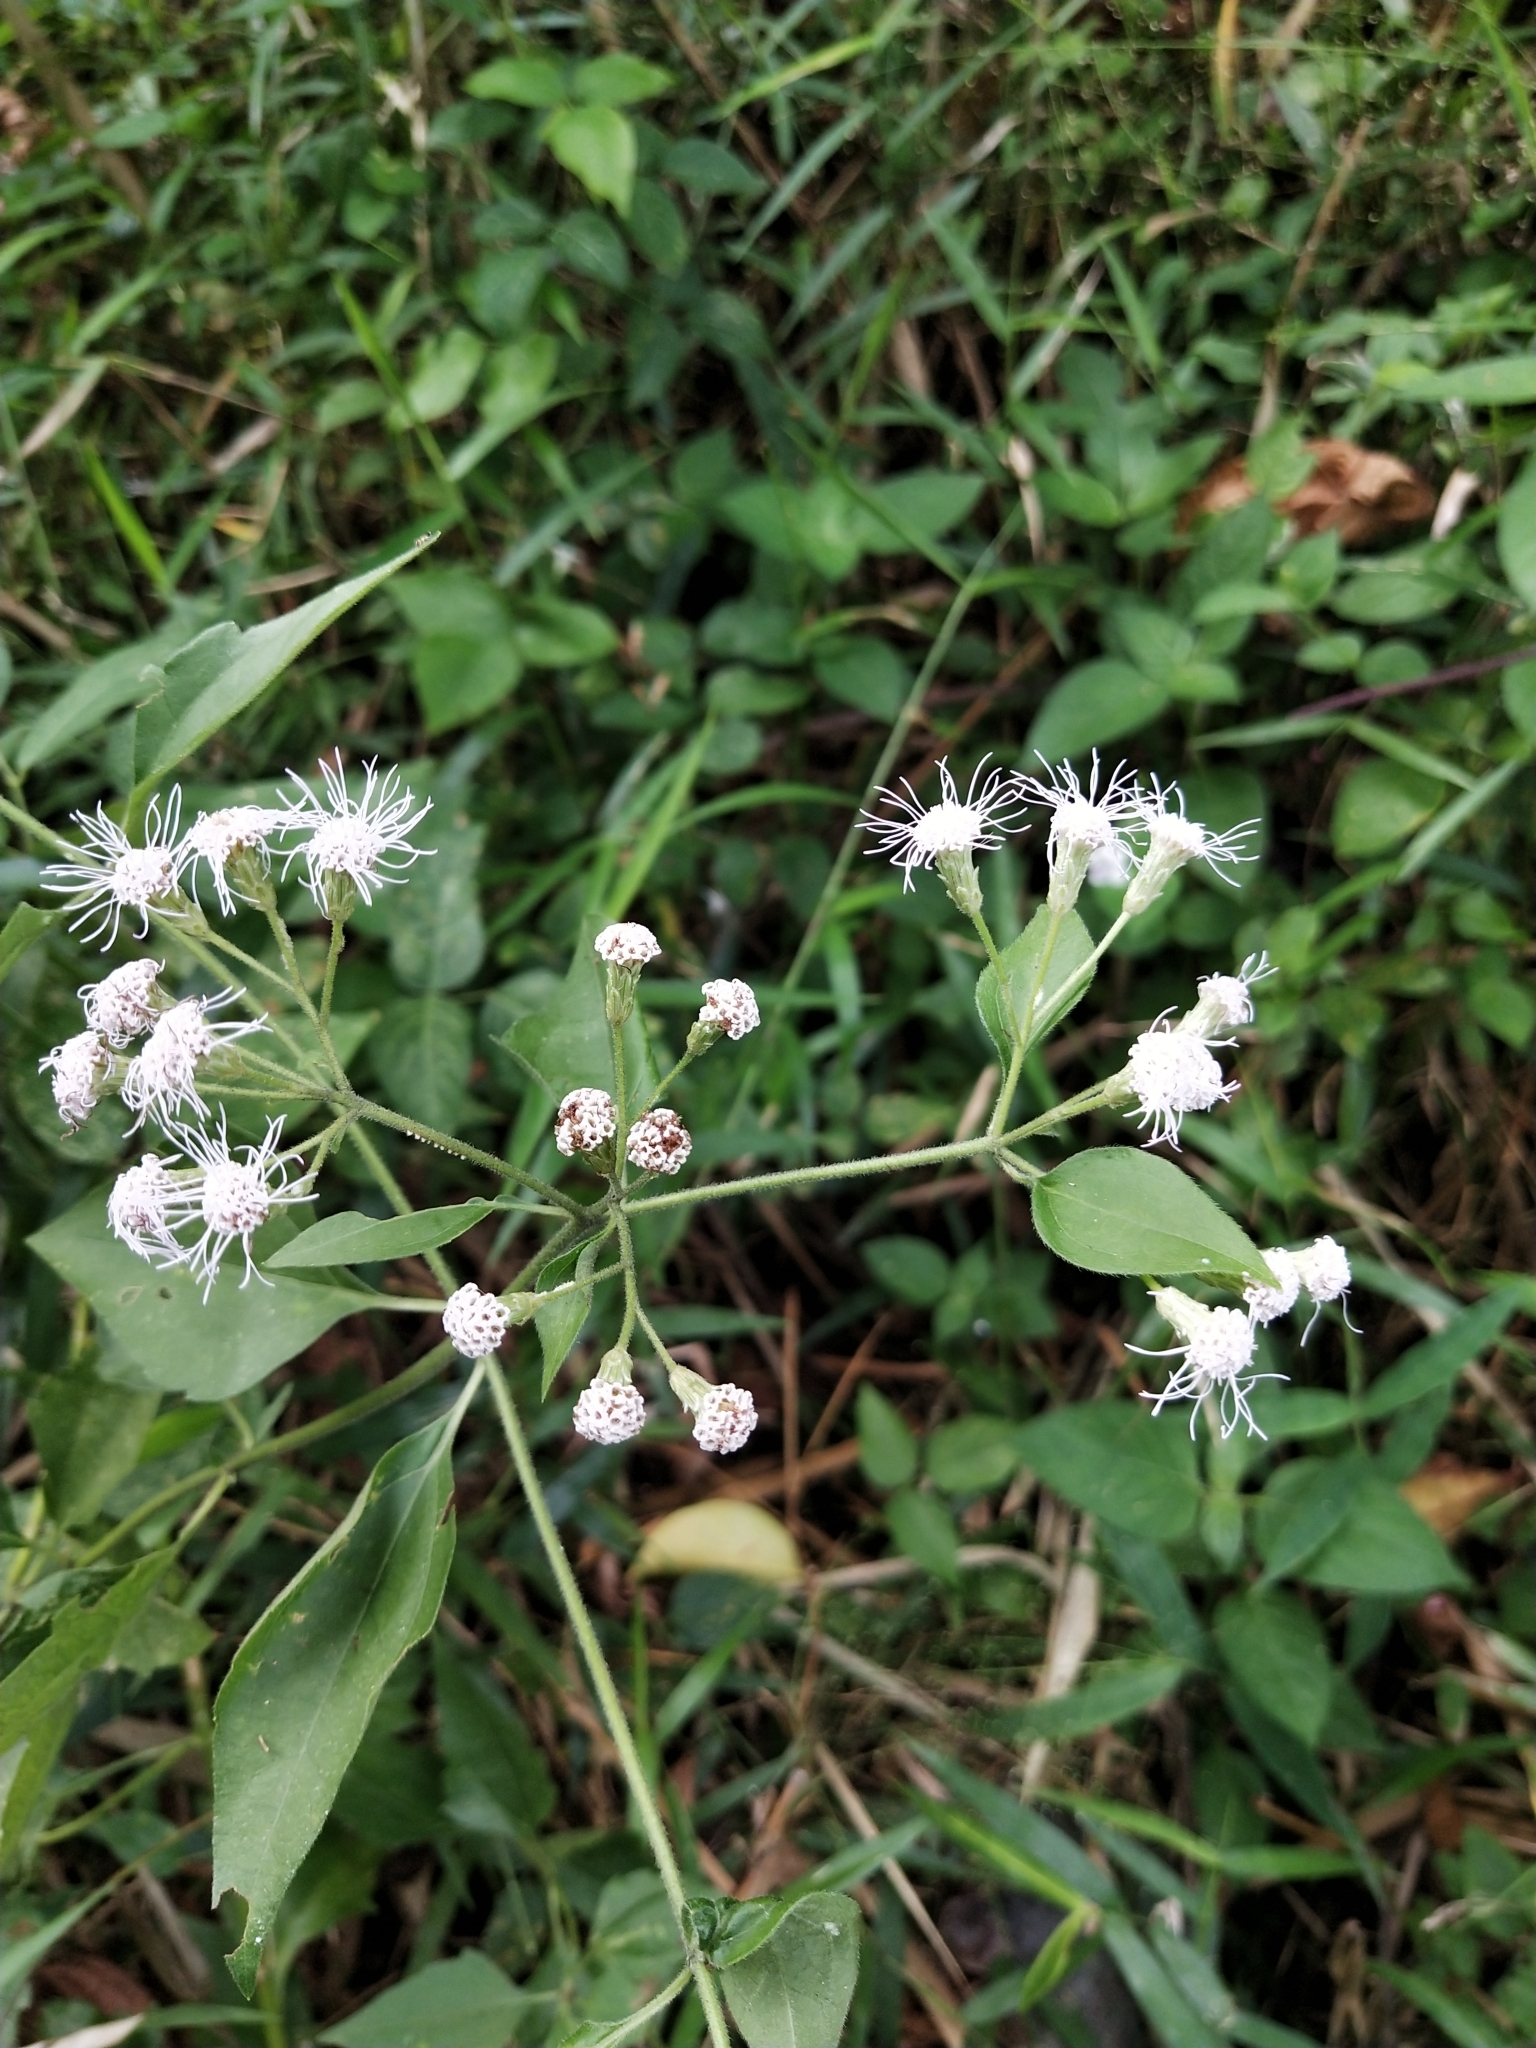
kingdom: Plantae
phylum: Tracheophyta
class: Magnoliopsida
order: Asterales
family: Asteraceae
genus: Chromolaena
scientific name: Chromolaena odorata
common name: Siamweed
